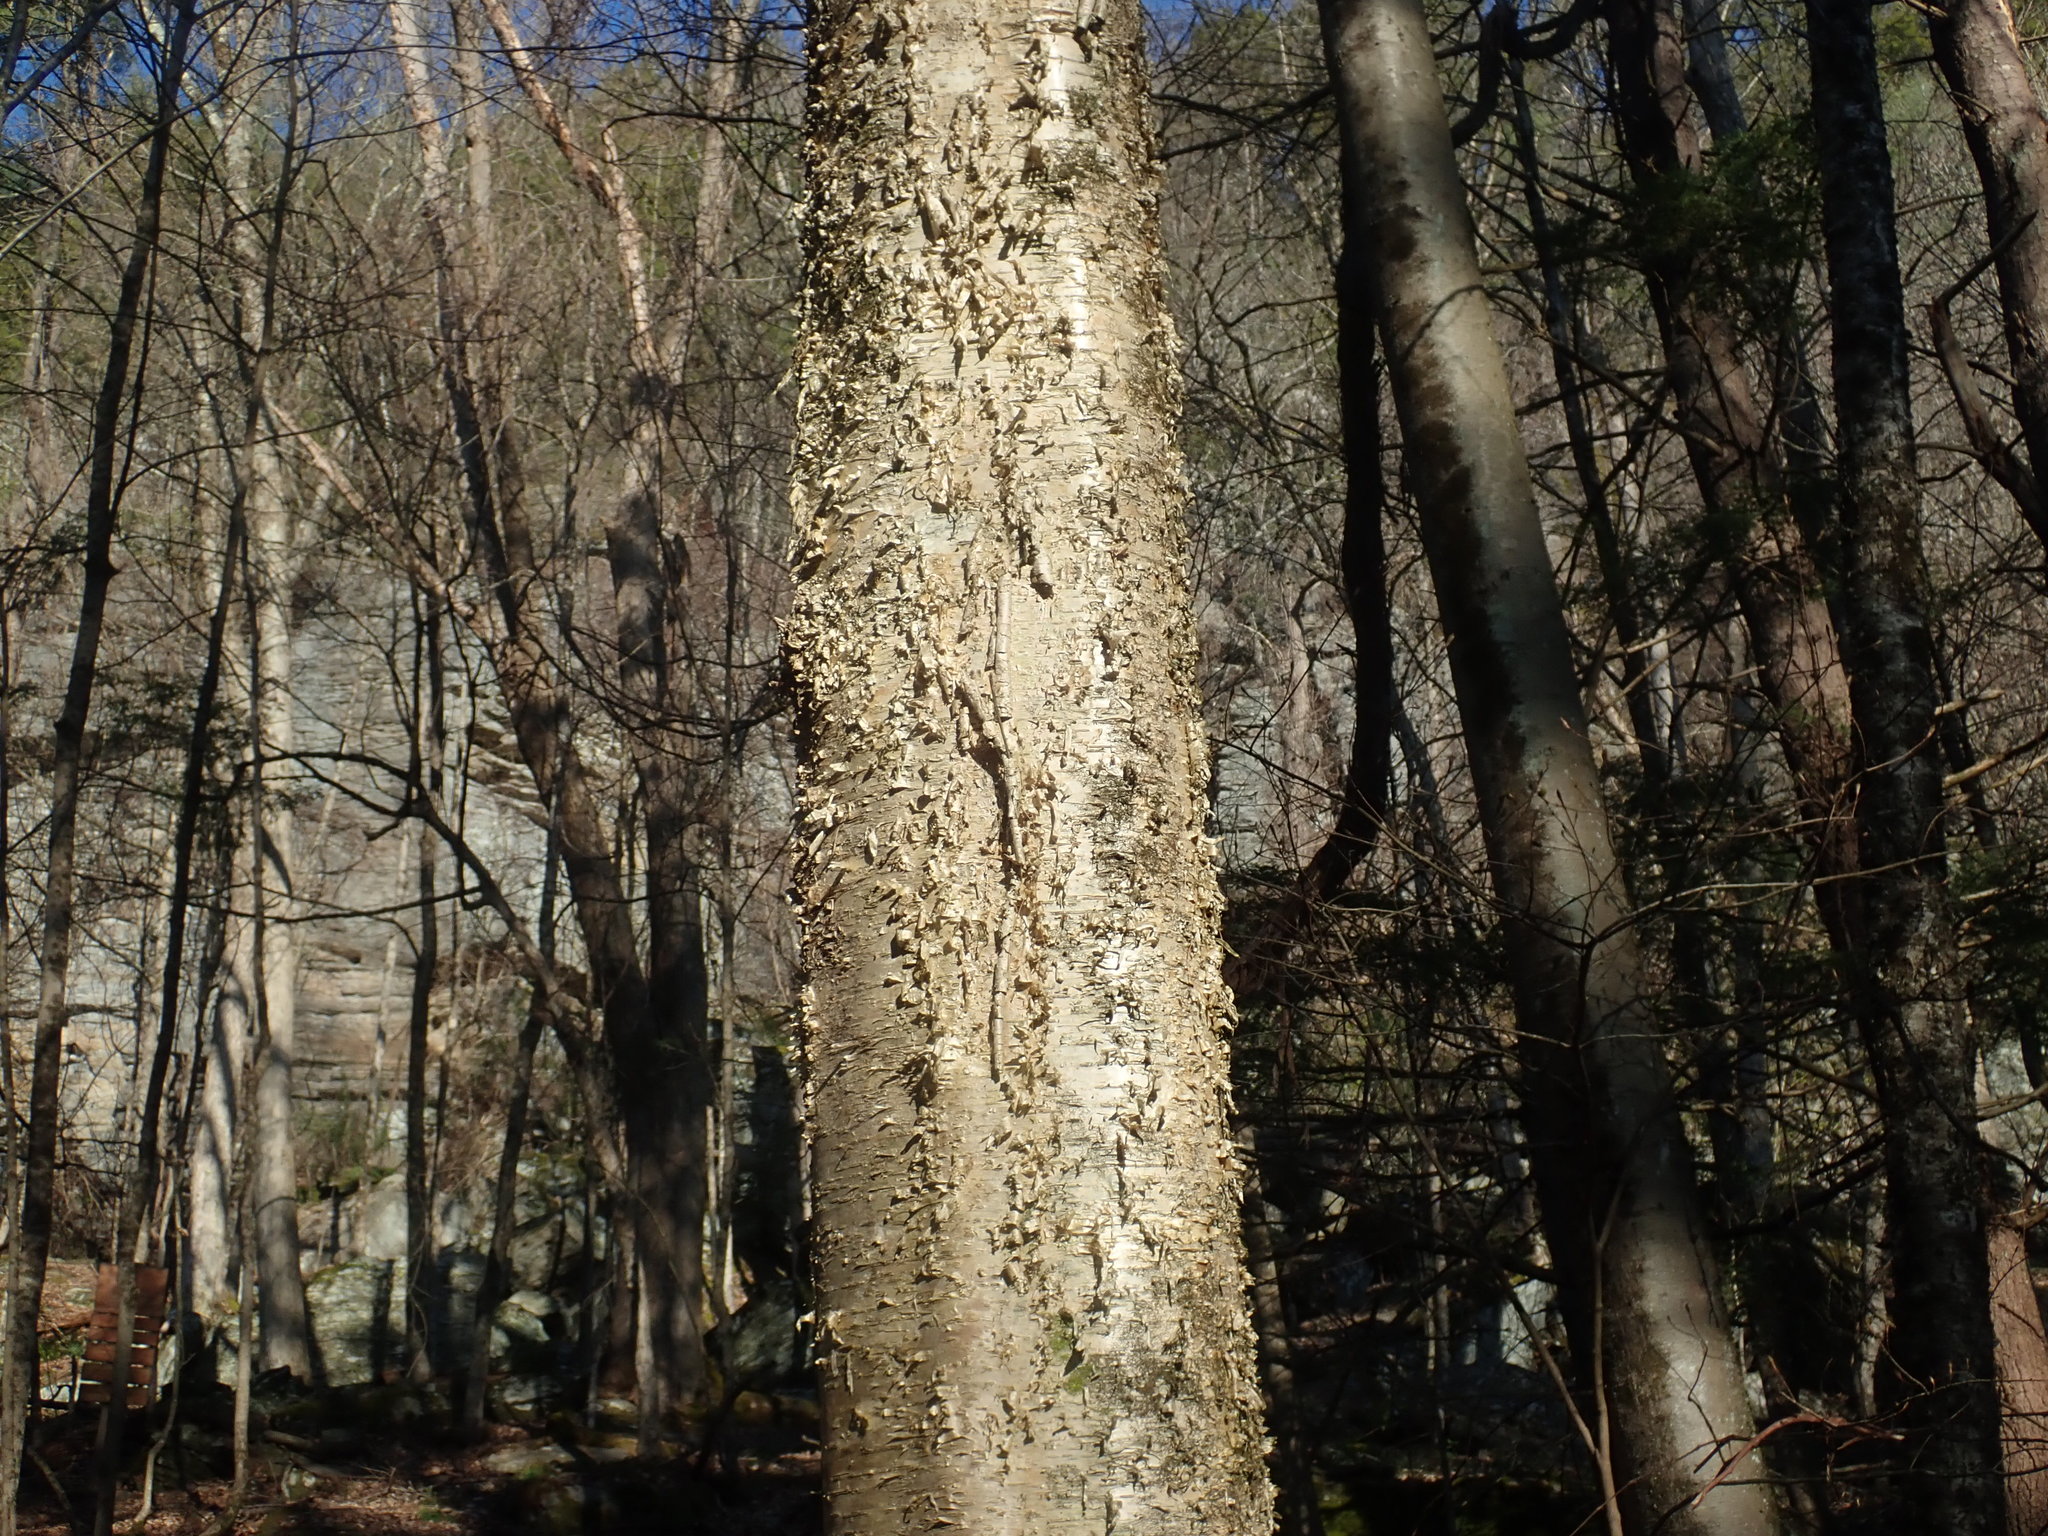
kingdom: Plantae
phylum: Tracheophyta
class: Magnoliopsida
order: Fagales
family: Betulaceae
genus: Betula
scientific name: Betula alleghaniensis
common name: Yellow birch
